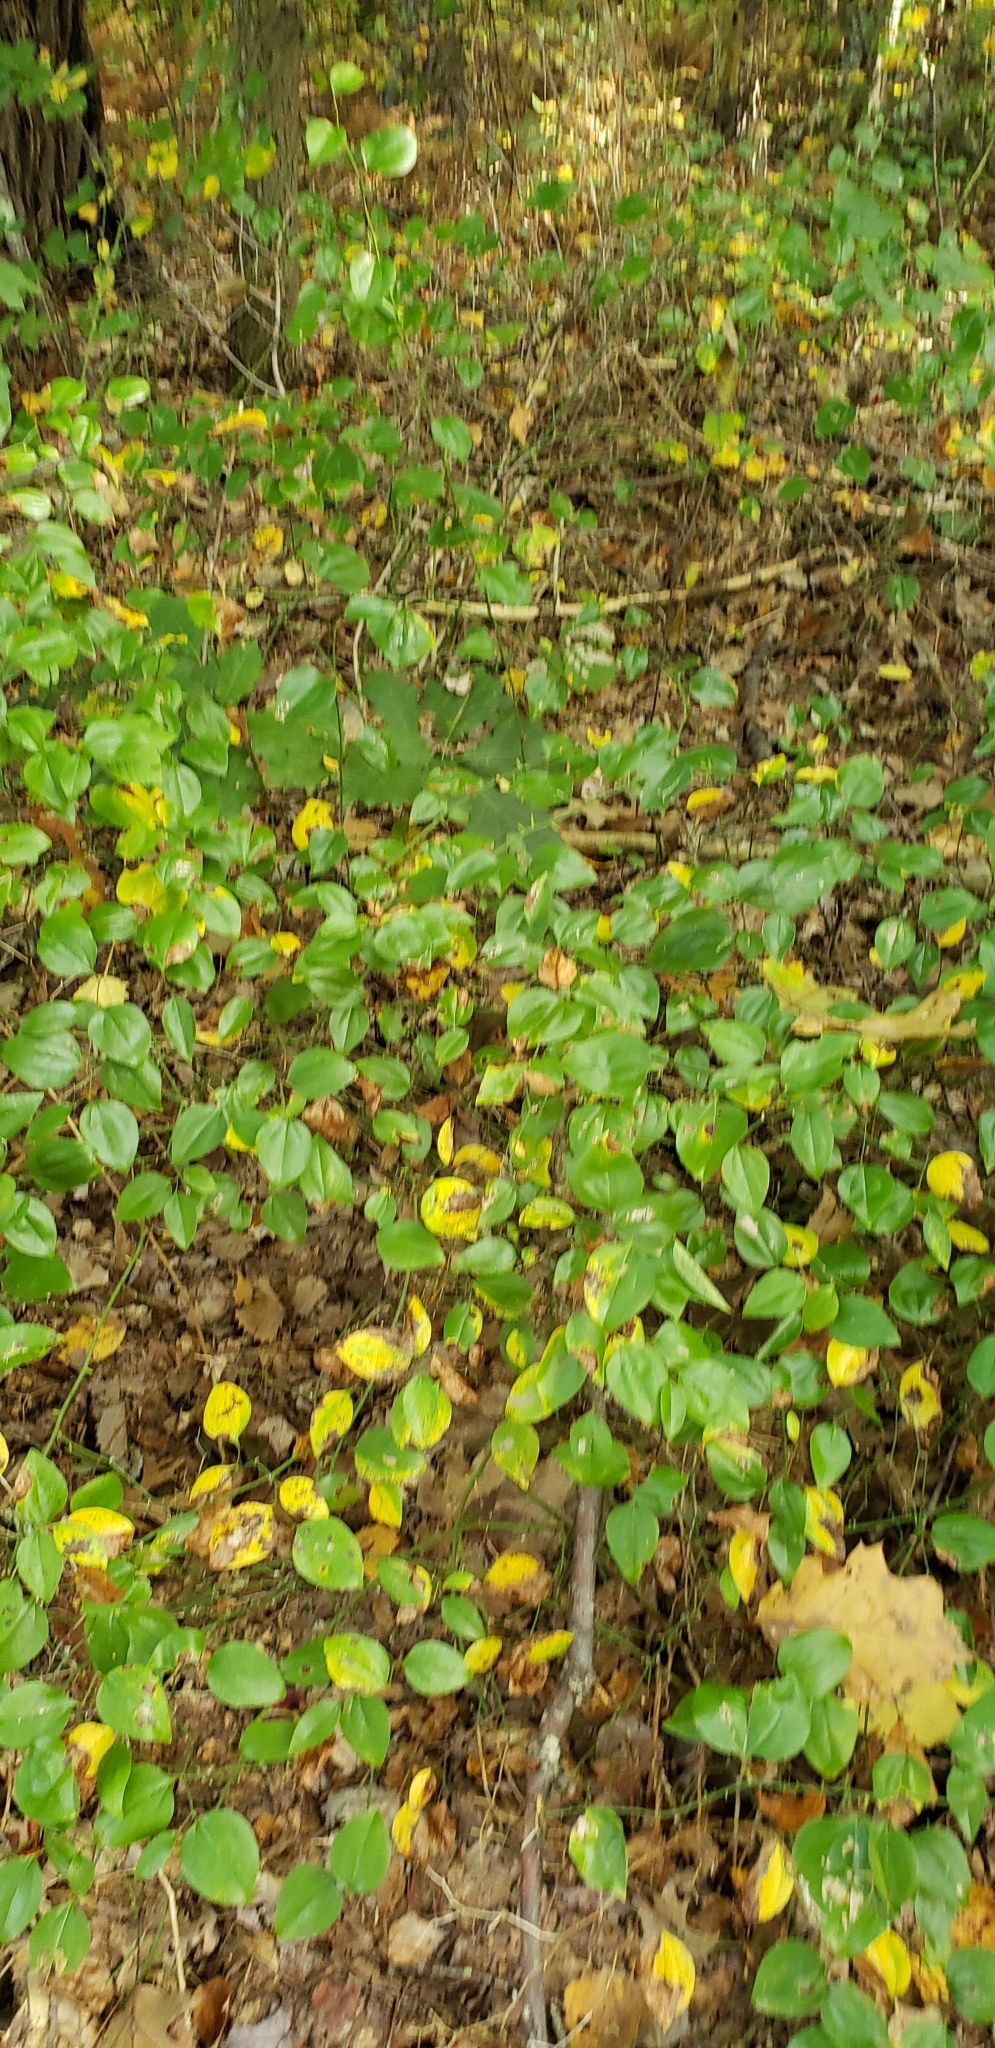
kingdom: Plantae
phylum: Tracheophyta
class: Liliopsida
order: Liliales
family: Smilacaceae
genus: Smilax
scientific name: Smilax rotundifolia
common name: Bullbriar
